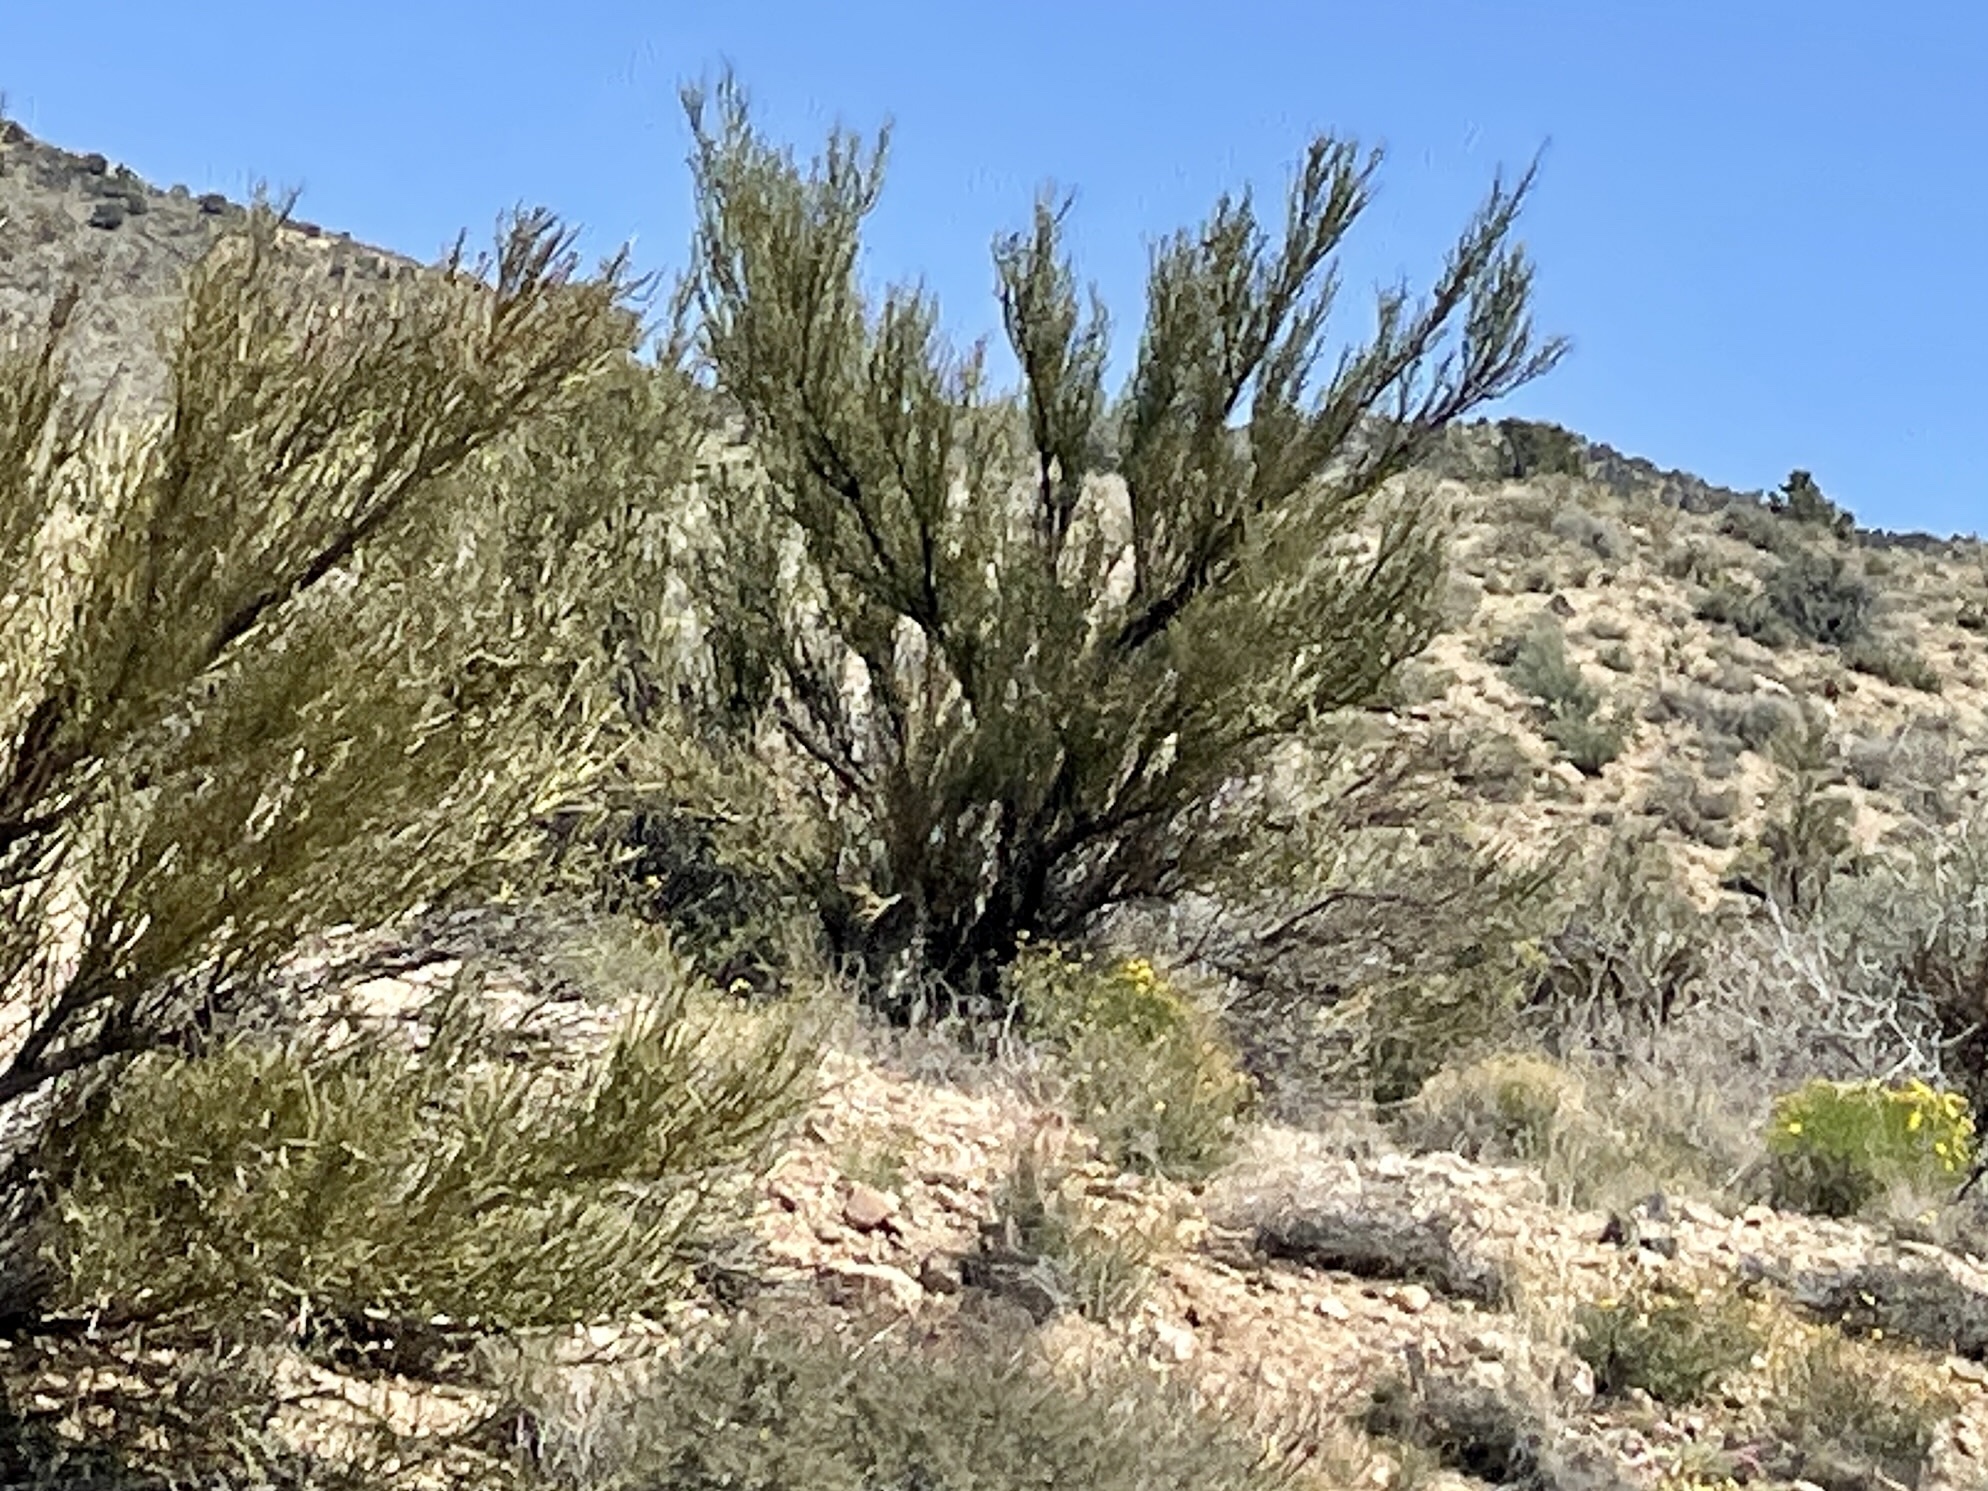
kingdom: Plantae
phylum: Tracheophyta
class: Magnoliopsida
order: Celastrales
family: Celastraceae
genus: Canotia
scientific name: Canotia holacantha
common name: Crucifixion thorns
